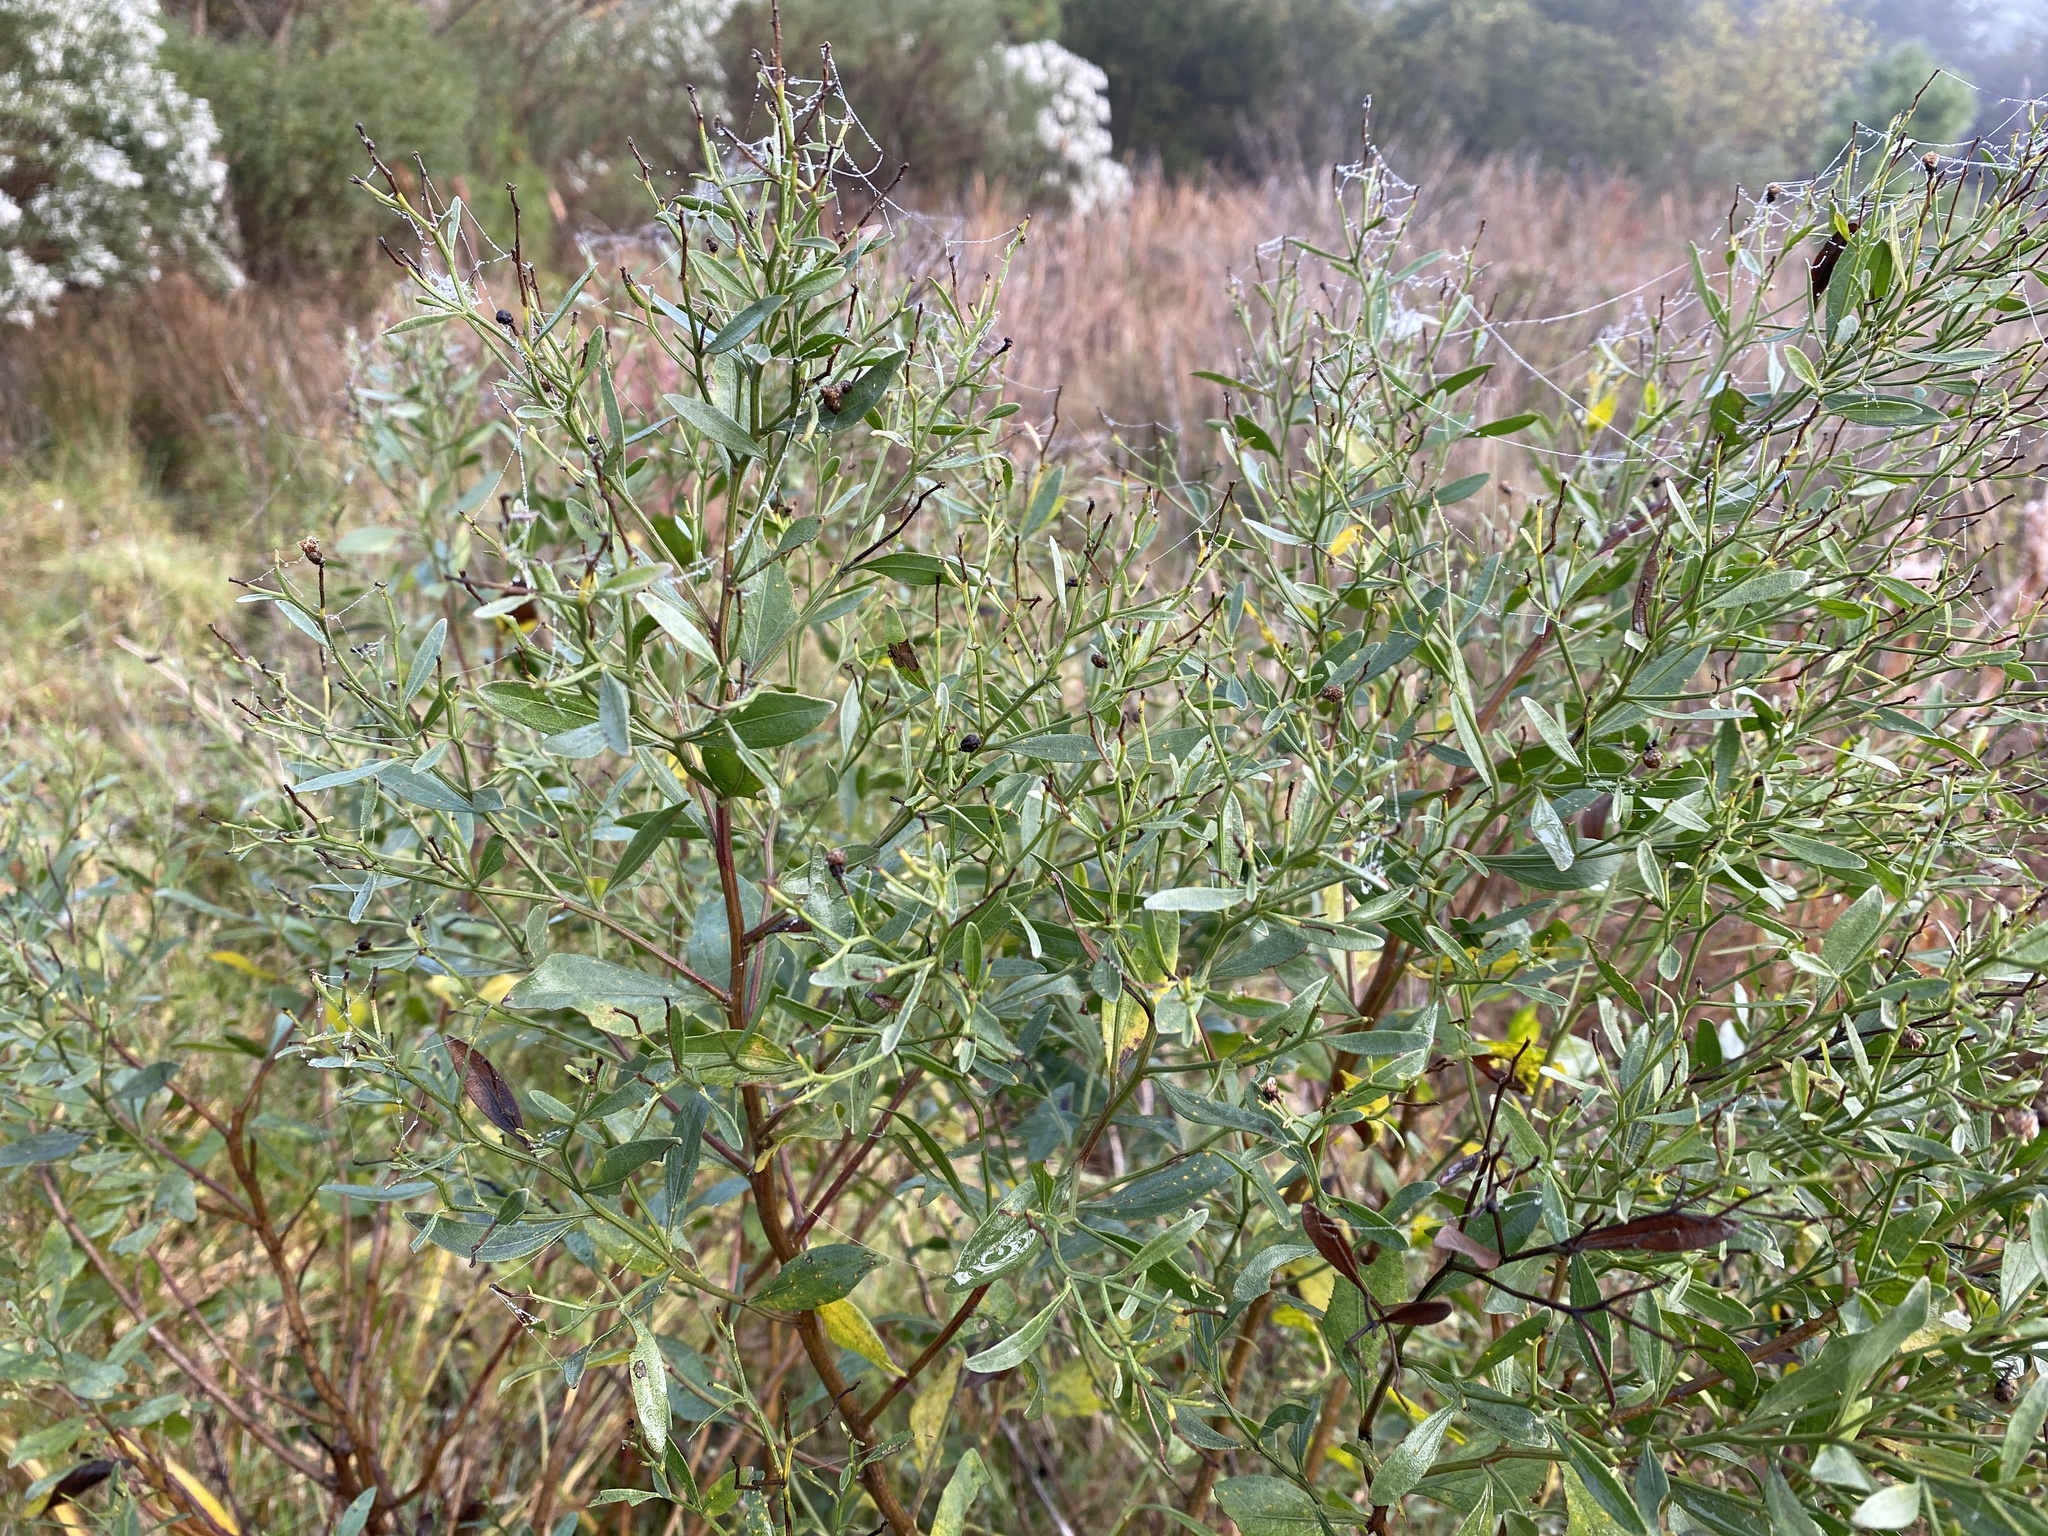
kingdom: Plantae
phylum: Tracheophyta
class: Magnoliopsida
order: Asterales
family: Asteraceae
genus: Baccharis
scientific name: Baccharis halimifolia
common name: Eastern baccharis
